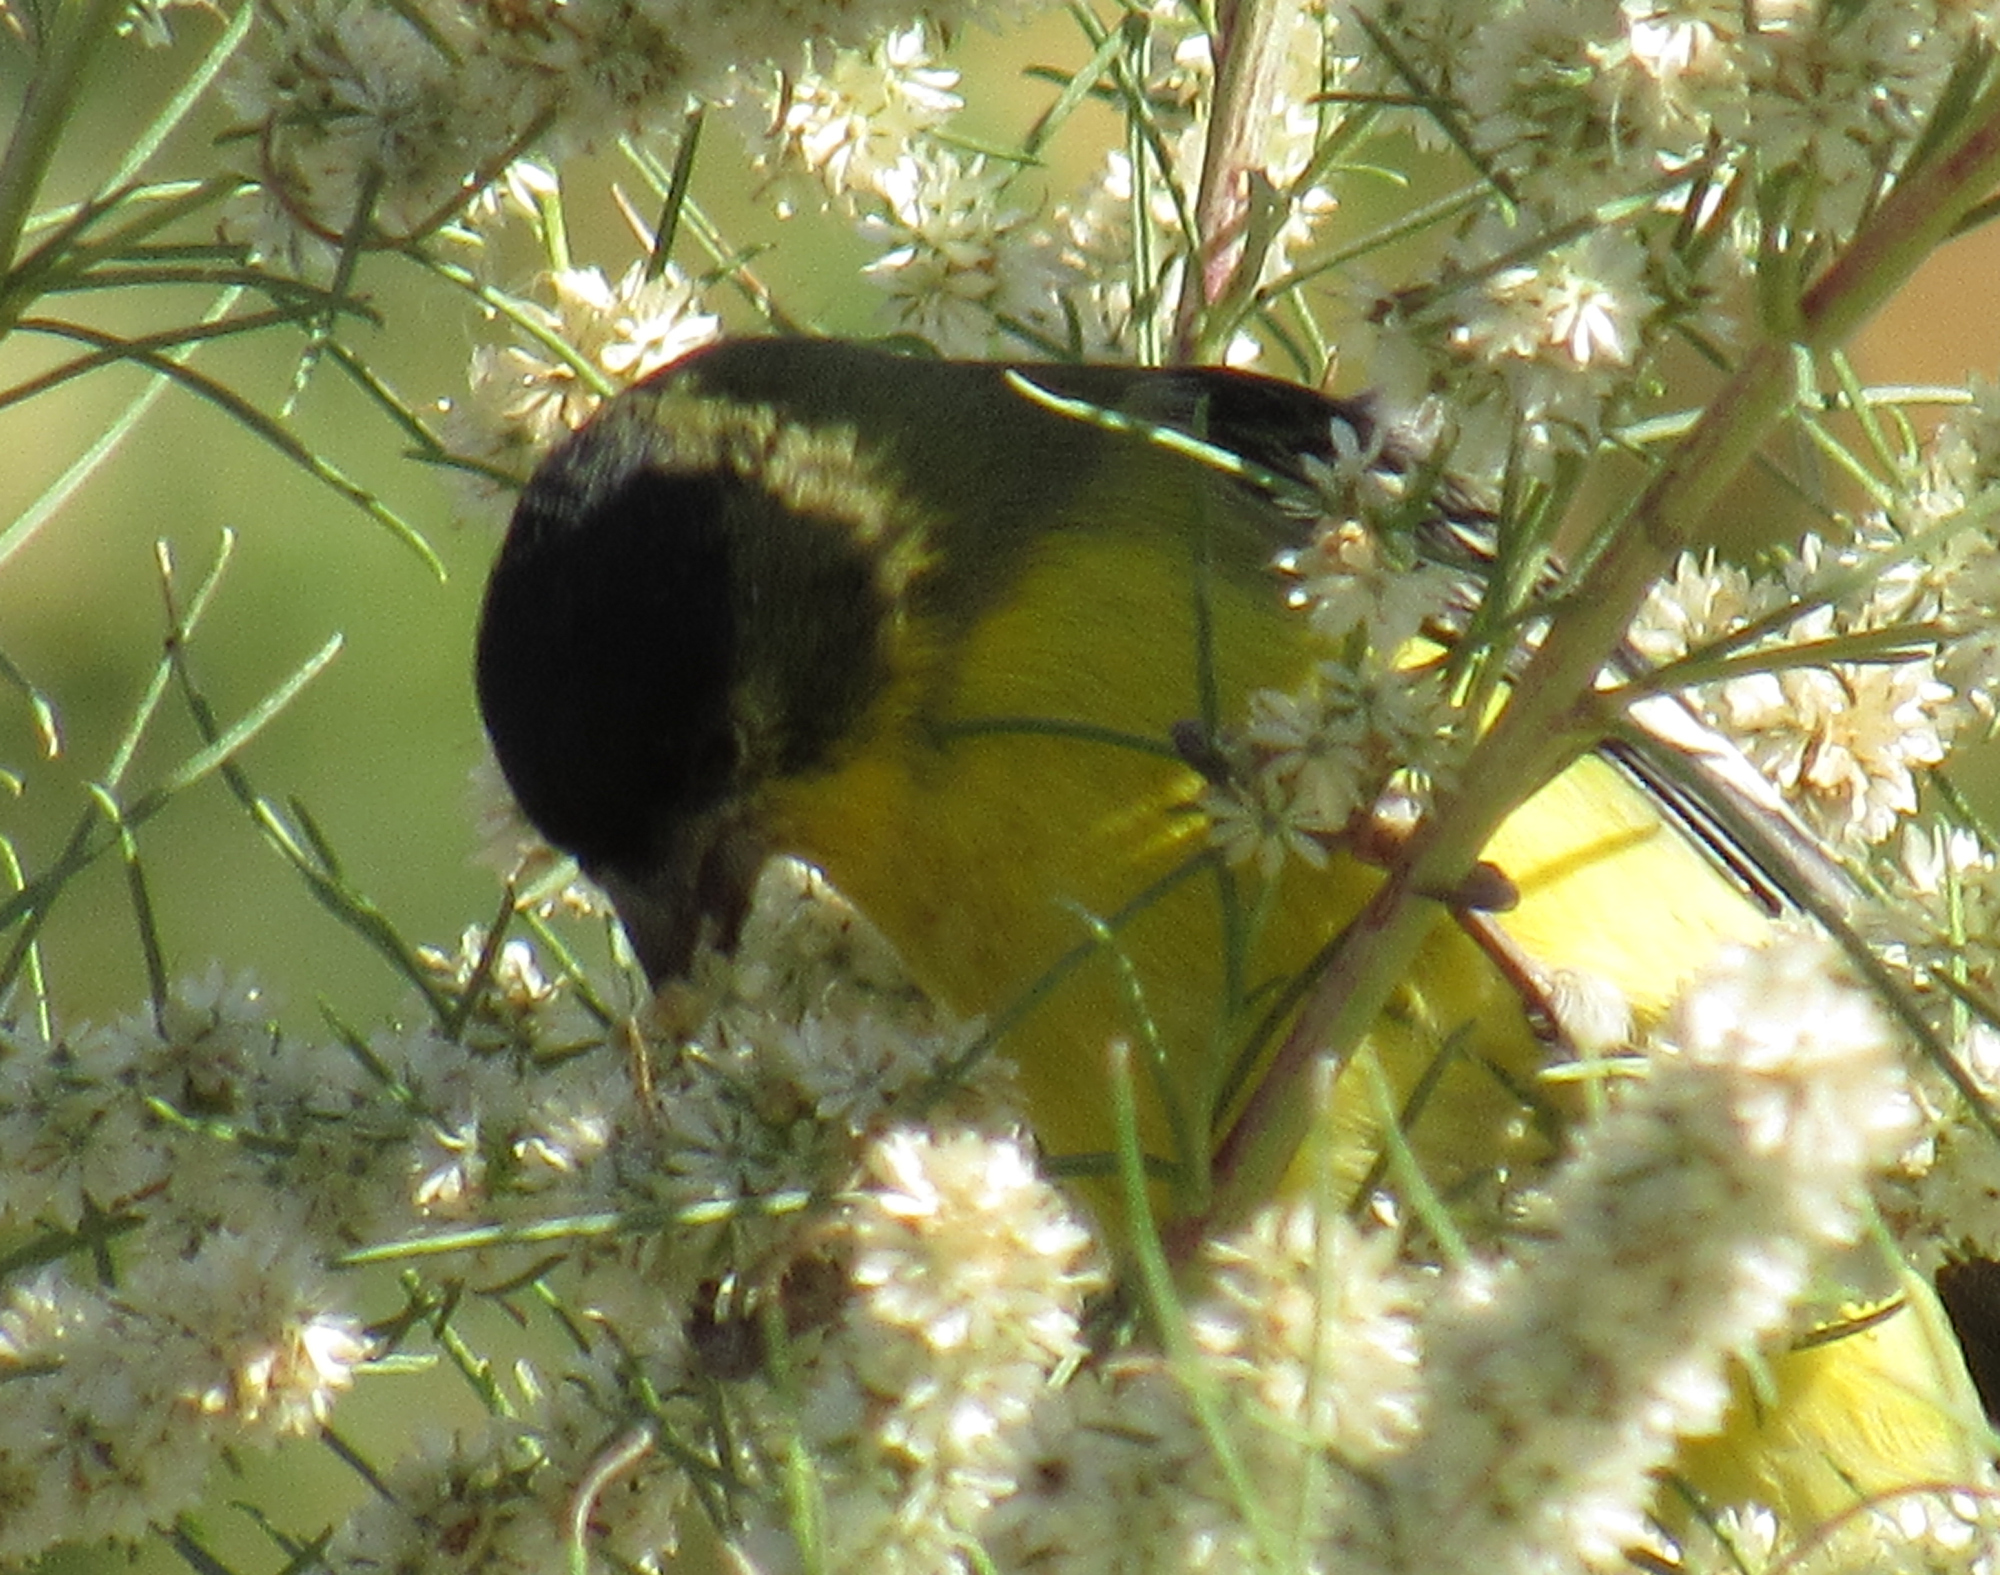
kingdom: Animalia
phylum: Chordata
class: Aves
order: Passeriformes
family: Fringillidae
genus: Spinus
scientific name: Spinus psaltria
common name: Lesser goldfinch
